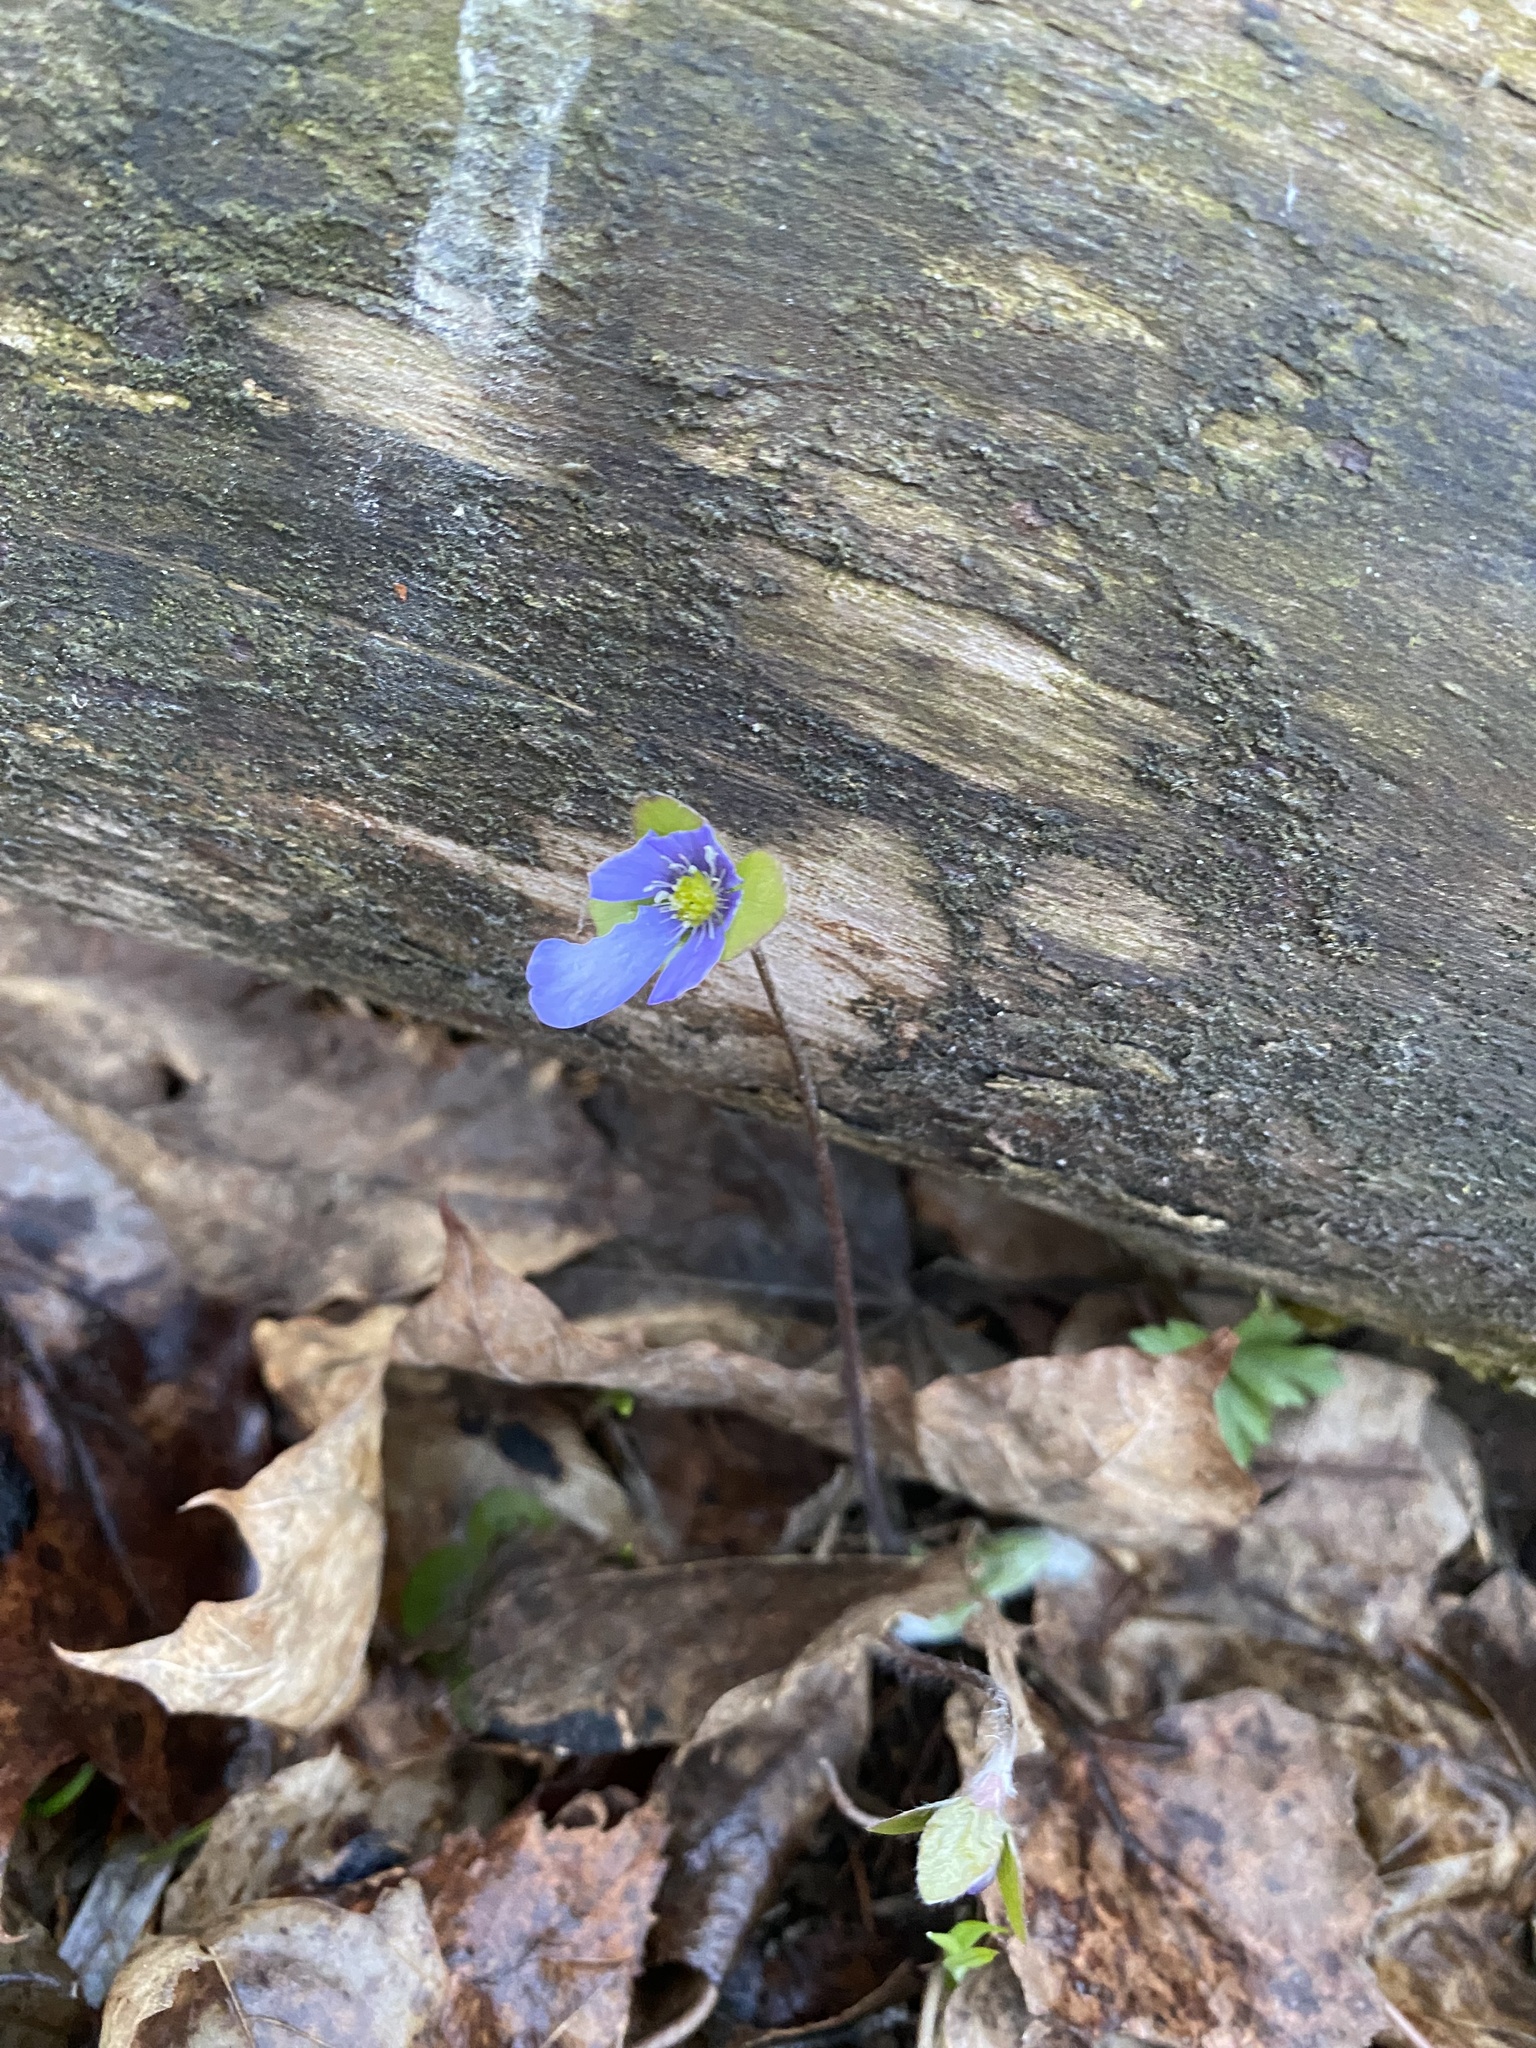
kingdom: Plantae
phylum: Tracheophyta
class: Magnoliopsida
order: Ranunculales
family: Ranunculaceae
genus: Hepatica
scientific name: Hepatica nobilis
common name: Liverleaf
